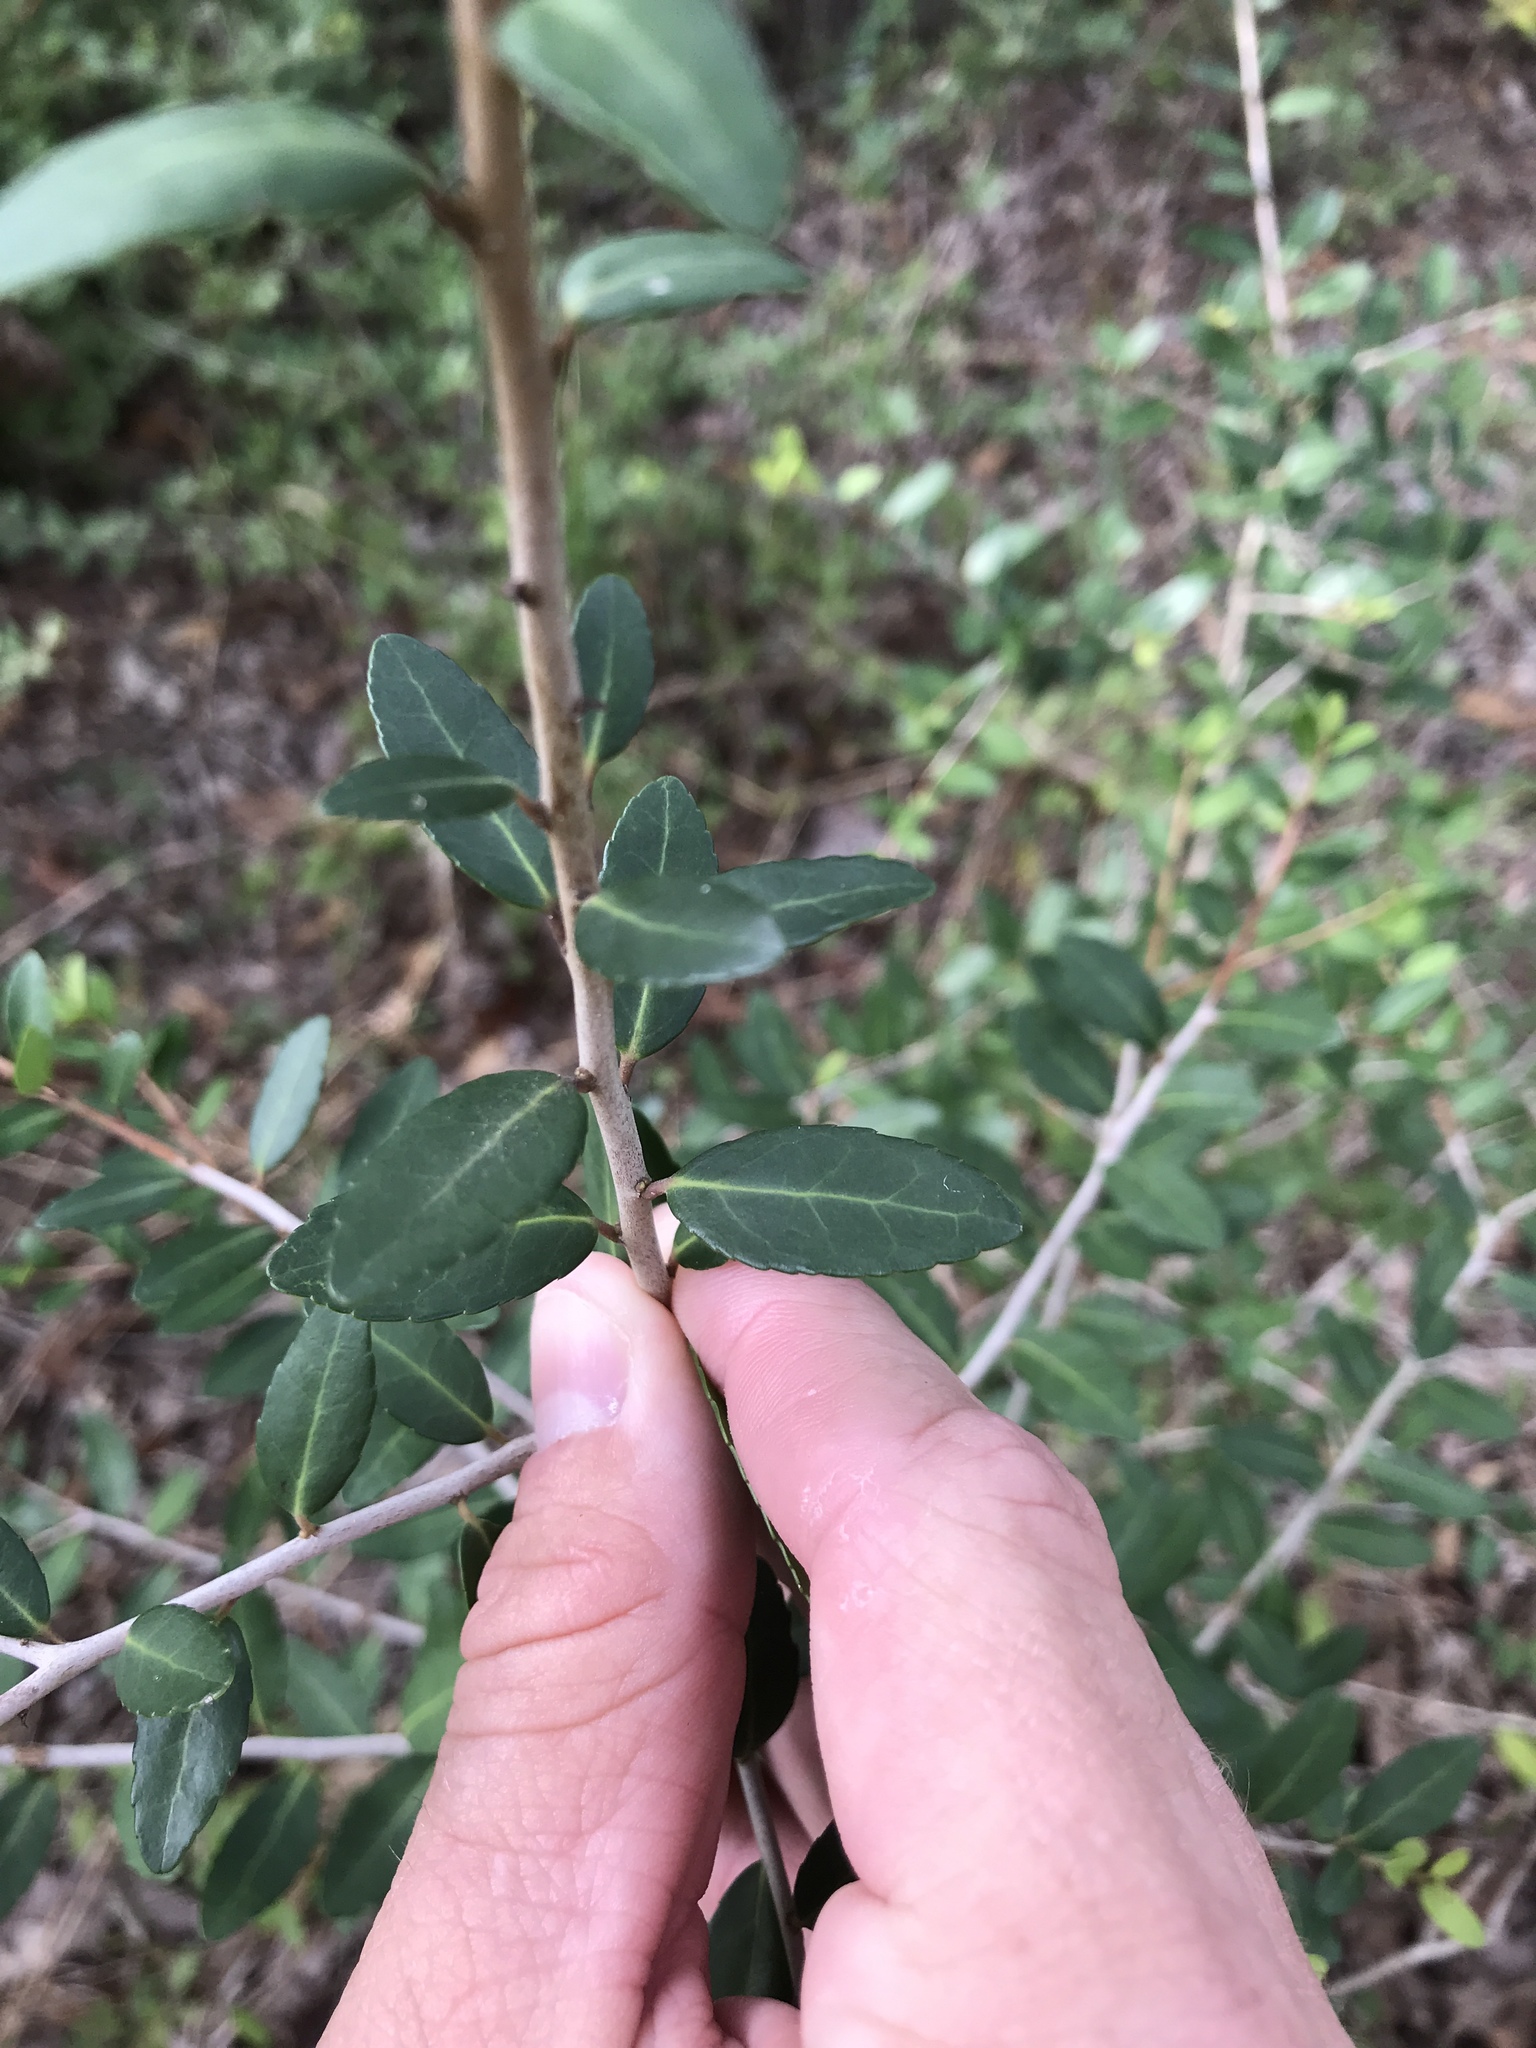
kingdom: Plantae
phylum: Tracheophyta
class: Magnoliopsida
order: Aquifoliales
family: Aquifoliaceae
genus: Ilex
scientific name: Ilex vomitoria
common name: Yaupon holly
